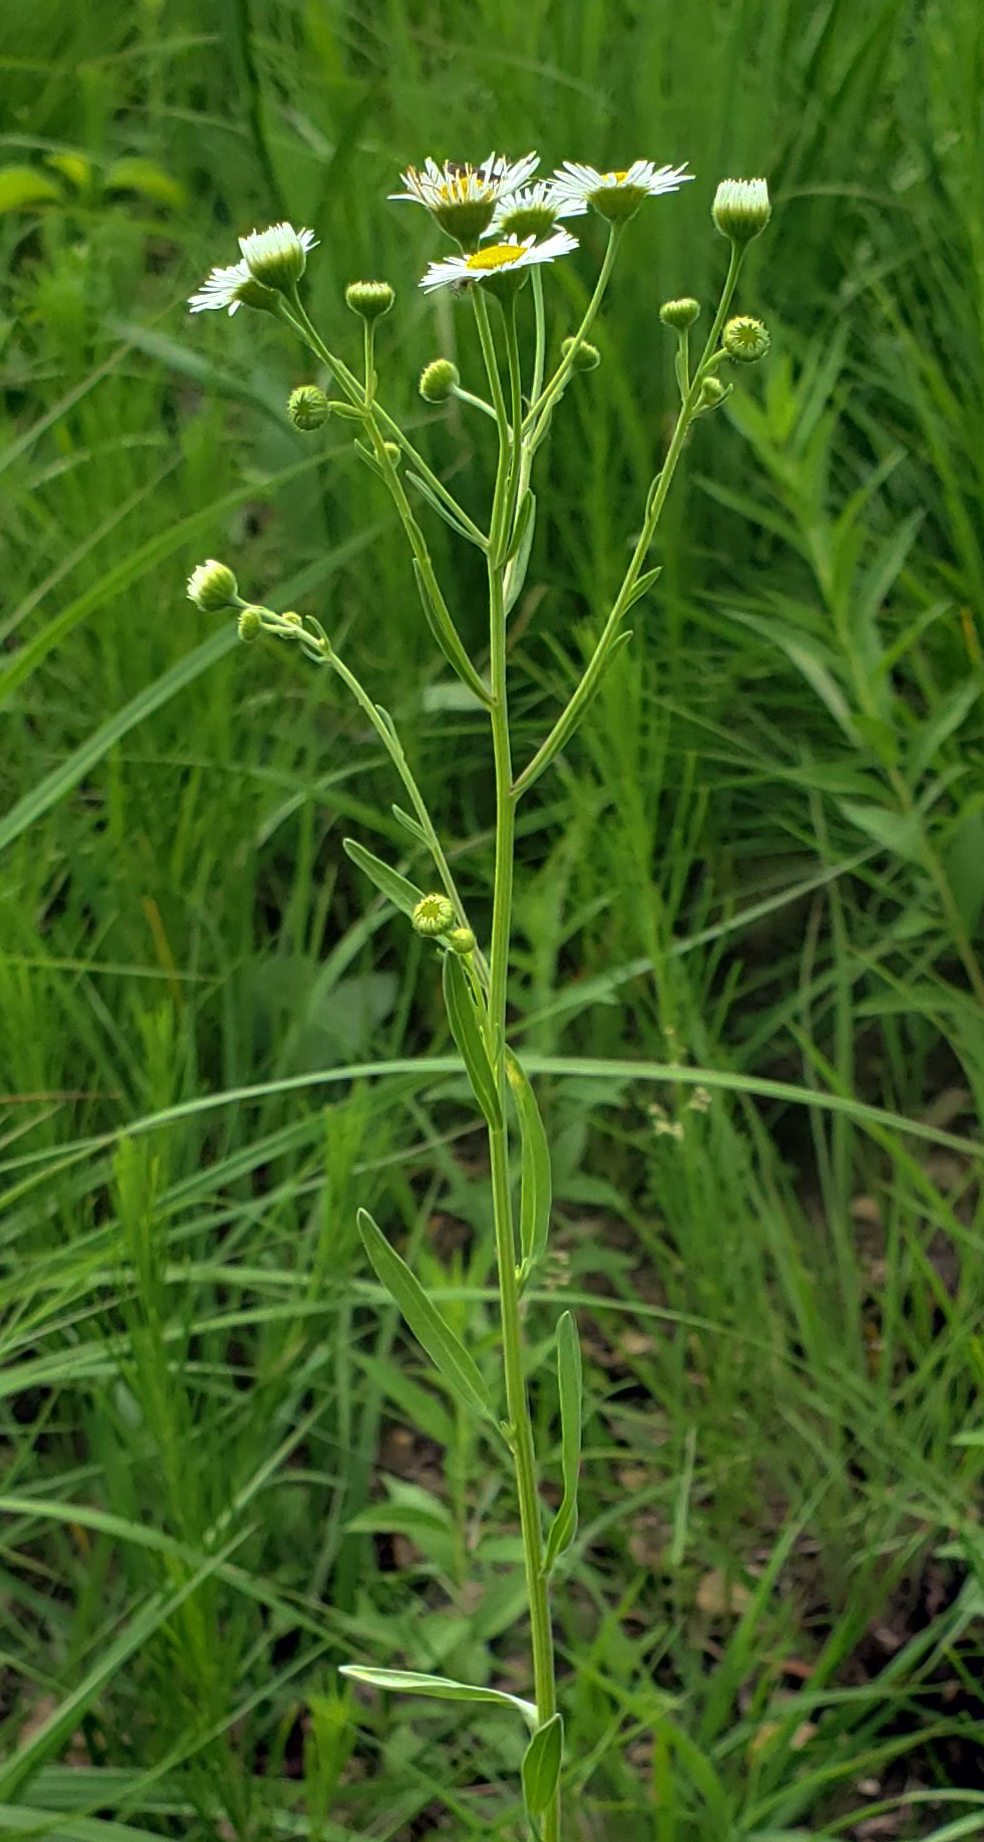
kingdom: Plantae
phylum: Tracheophyta
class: Magnoliopsida
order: Asterales
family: Asteraceae
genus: Erigeron
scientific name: Erigeron strigosus
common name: Common eastern fleabane
